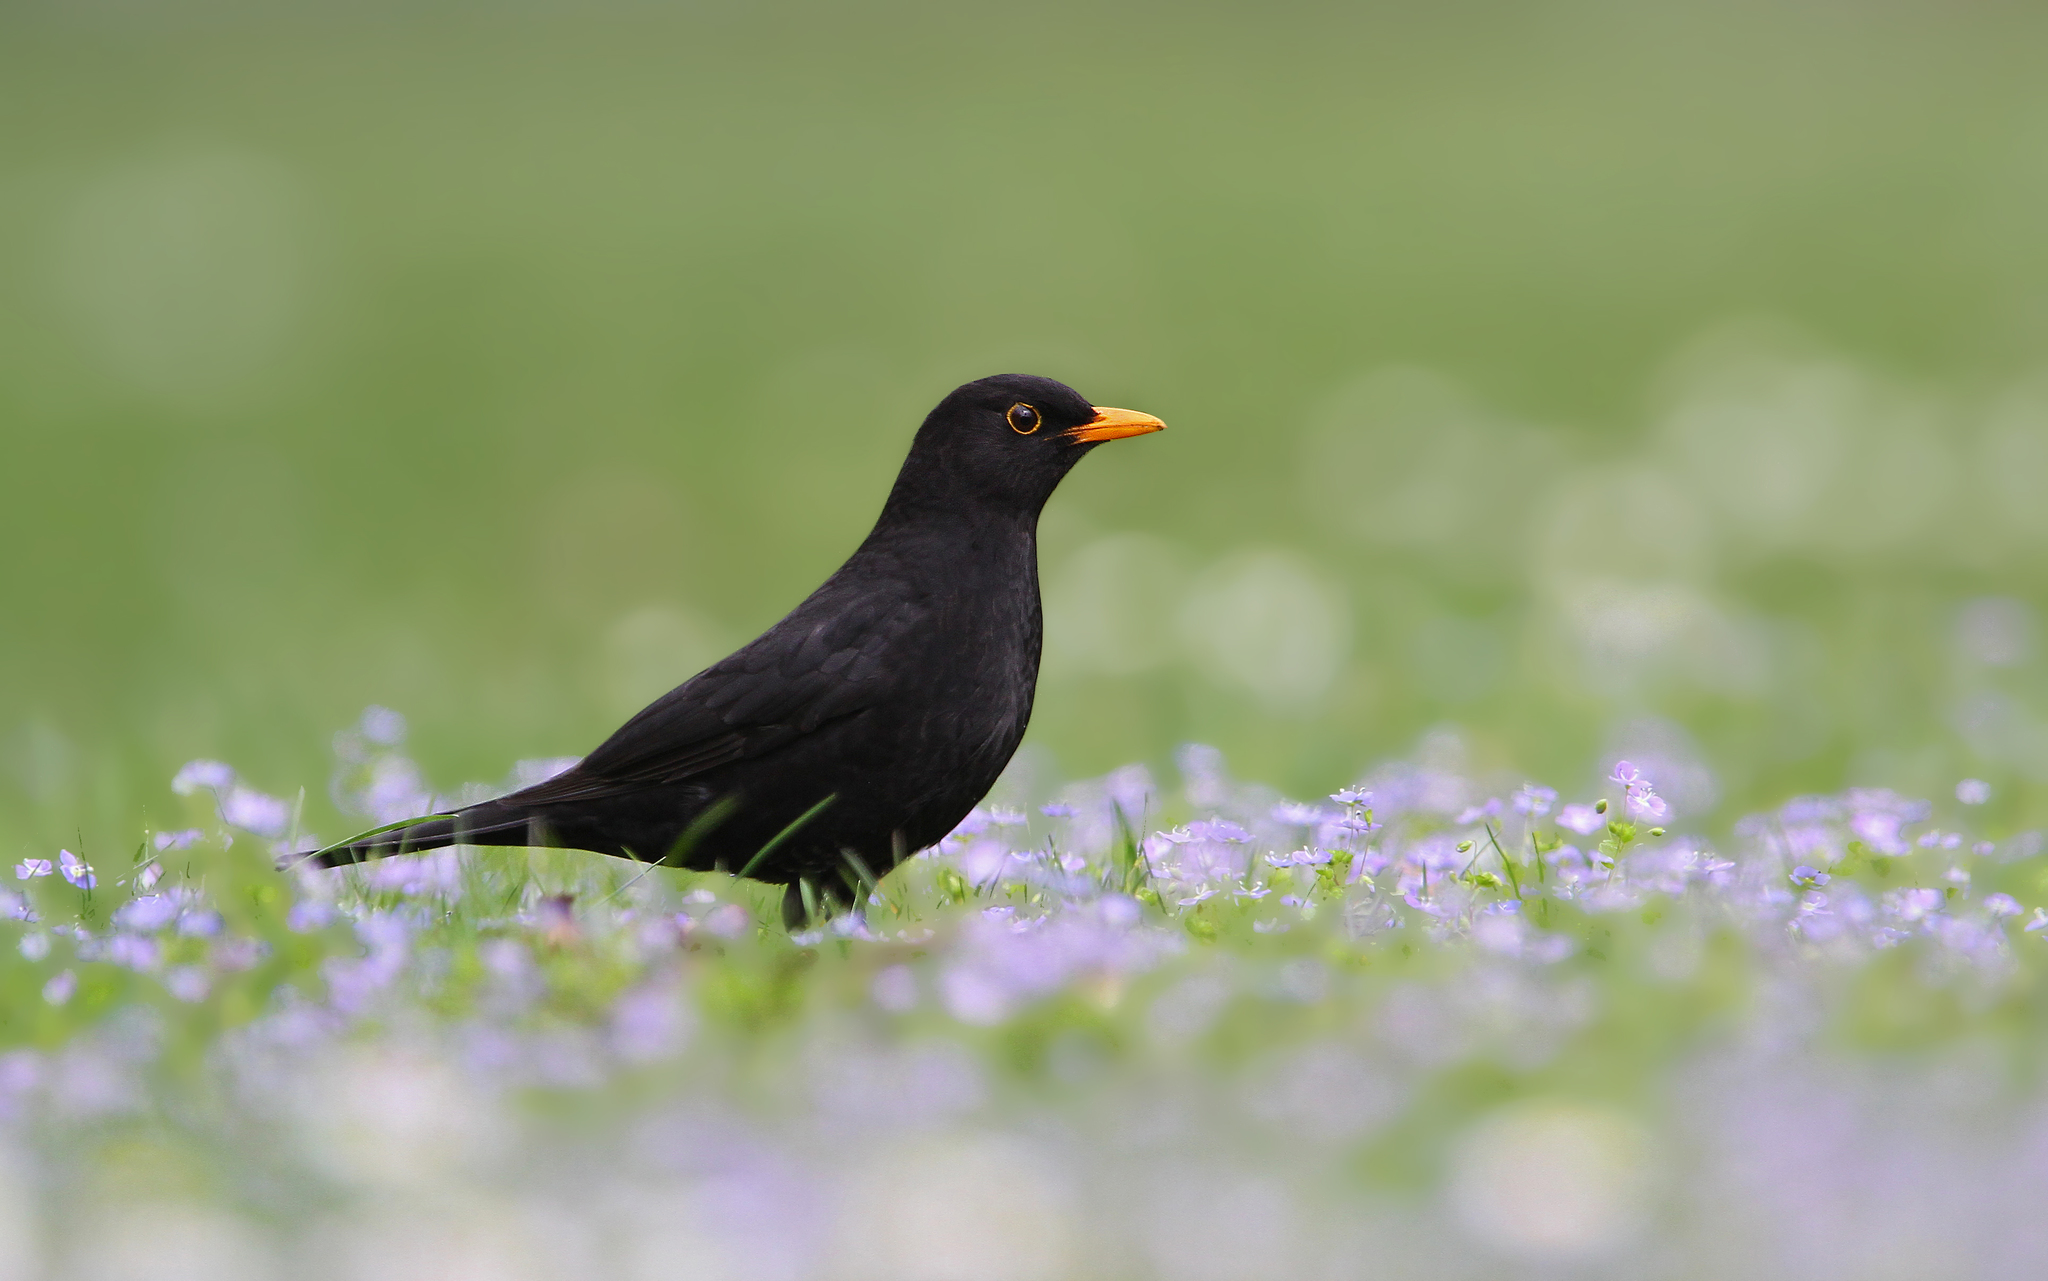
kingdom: Animalia
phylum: Chordata
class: Aves
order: Passeriformes
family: Turdidae
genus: Turdus
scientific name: Turdus merula
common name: Common blackbird
